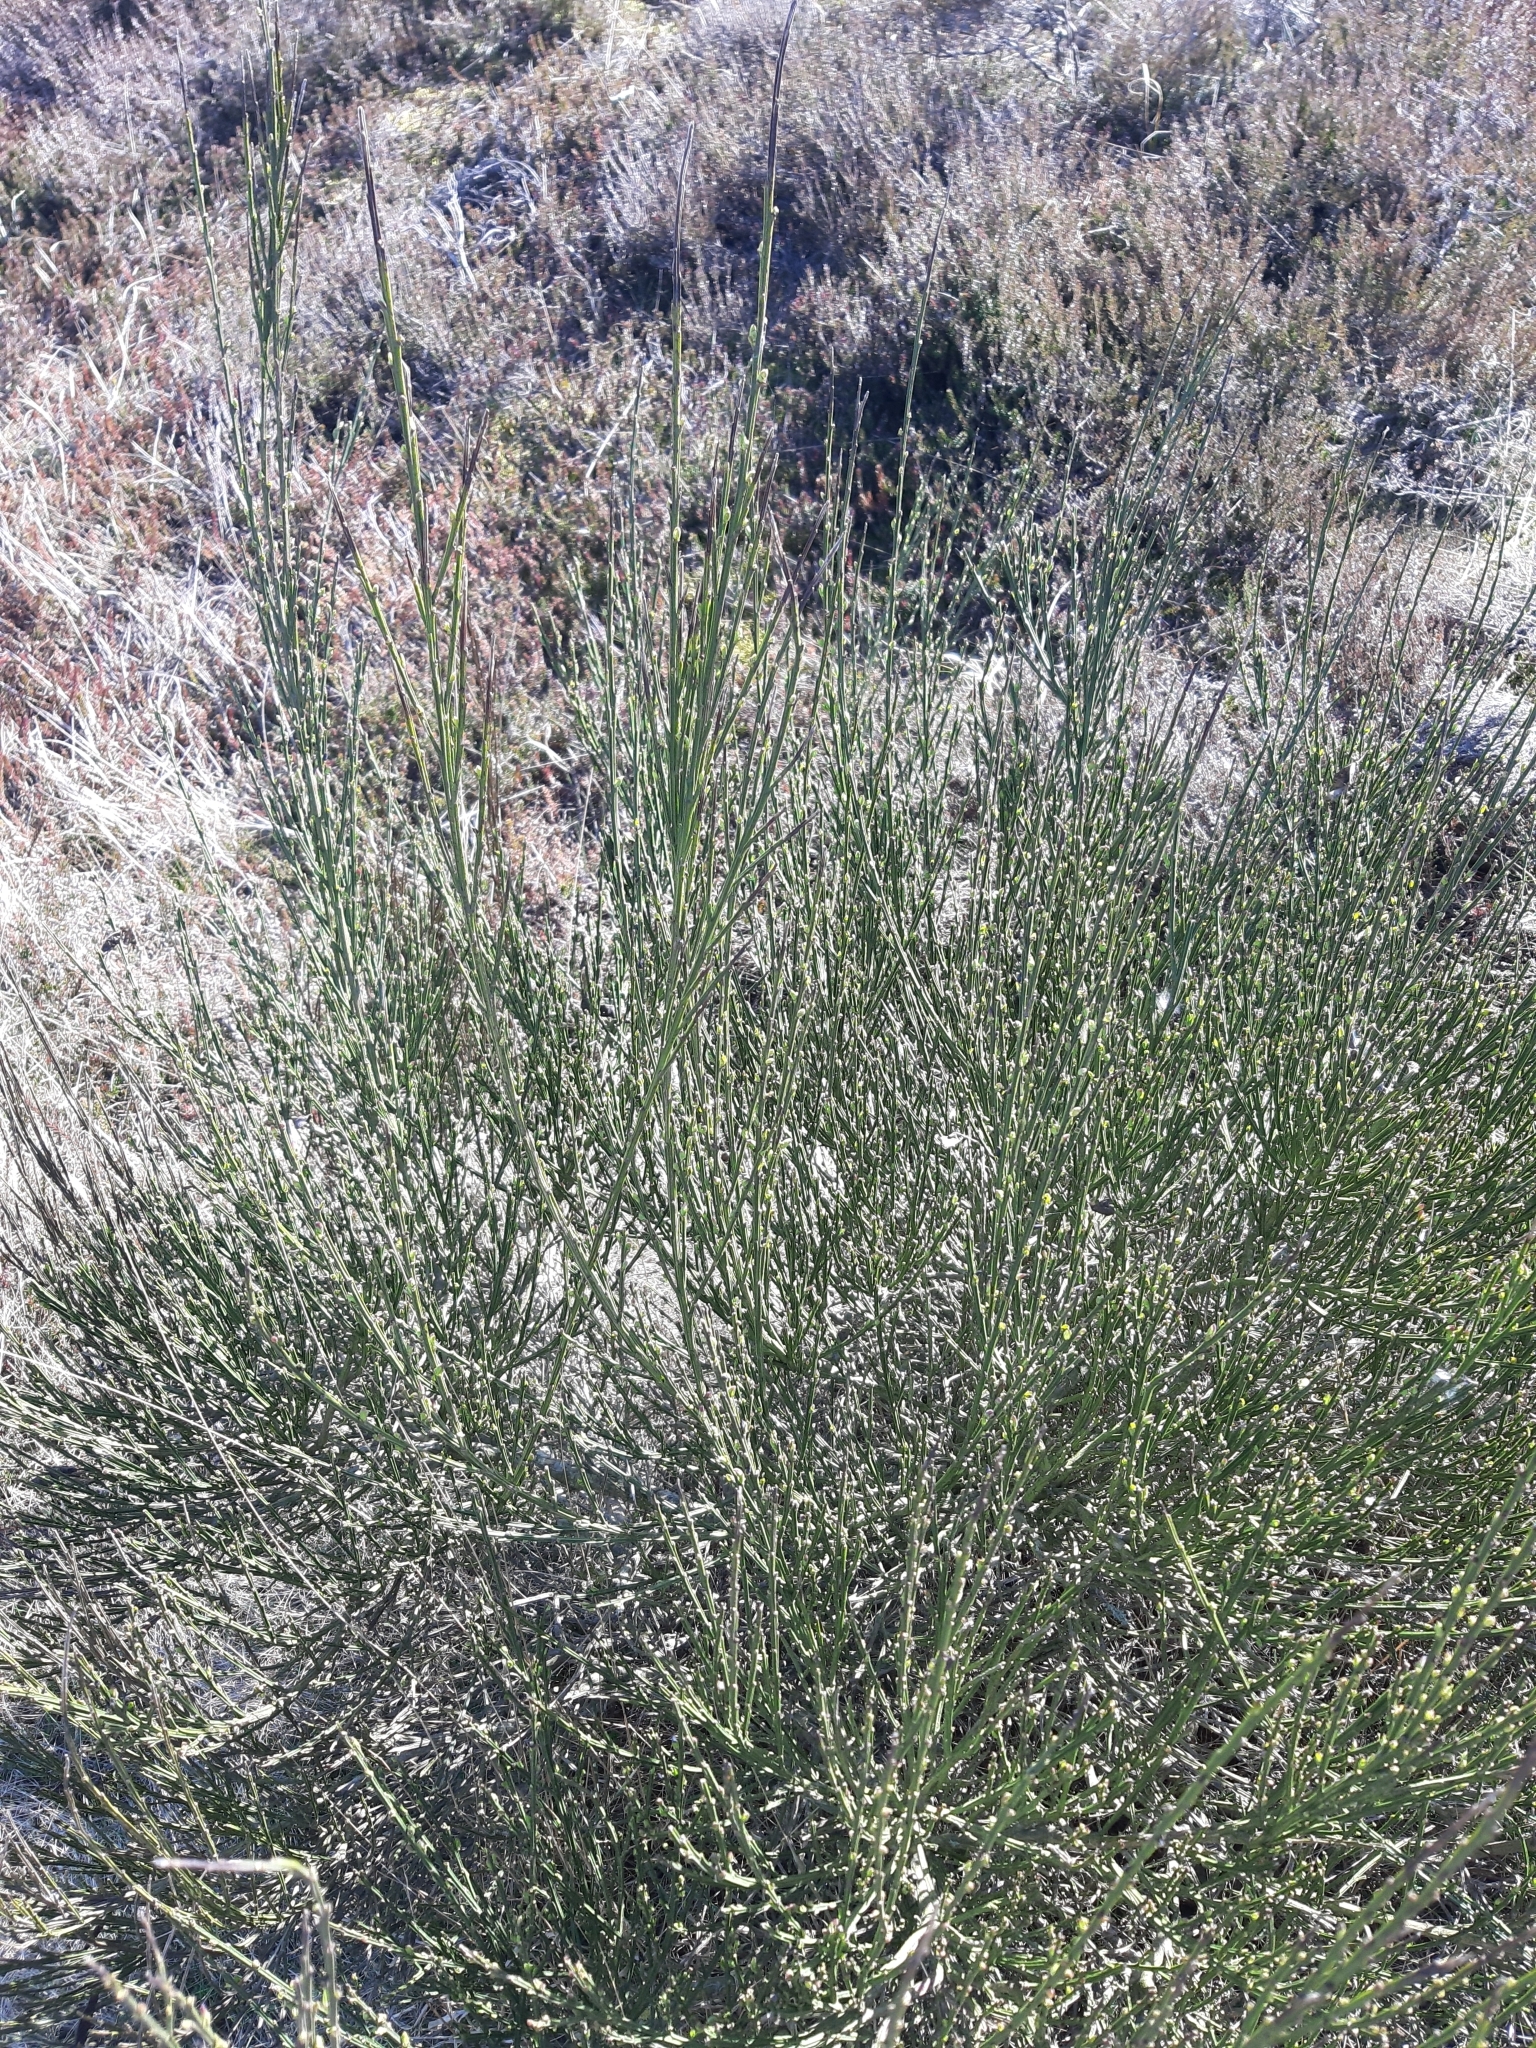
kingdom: Plantae
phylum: Tracheophyta
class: Magnoliopsida
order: Fabales
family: Fabaceae
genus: Cytisus
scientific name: Cytisus scoparius
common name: Scotch broom
